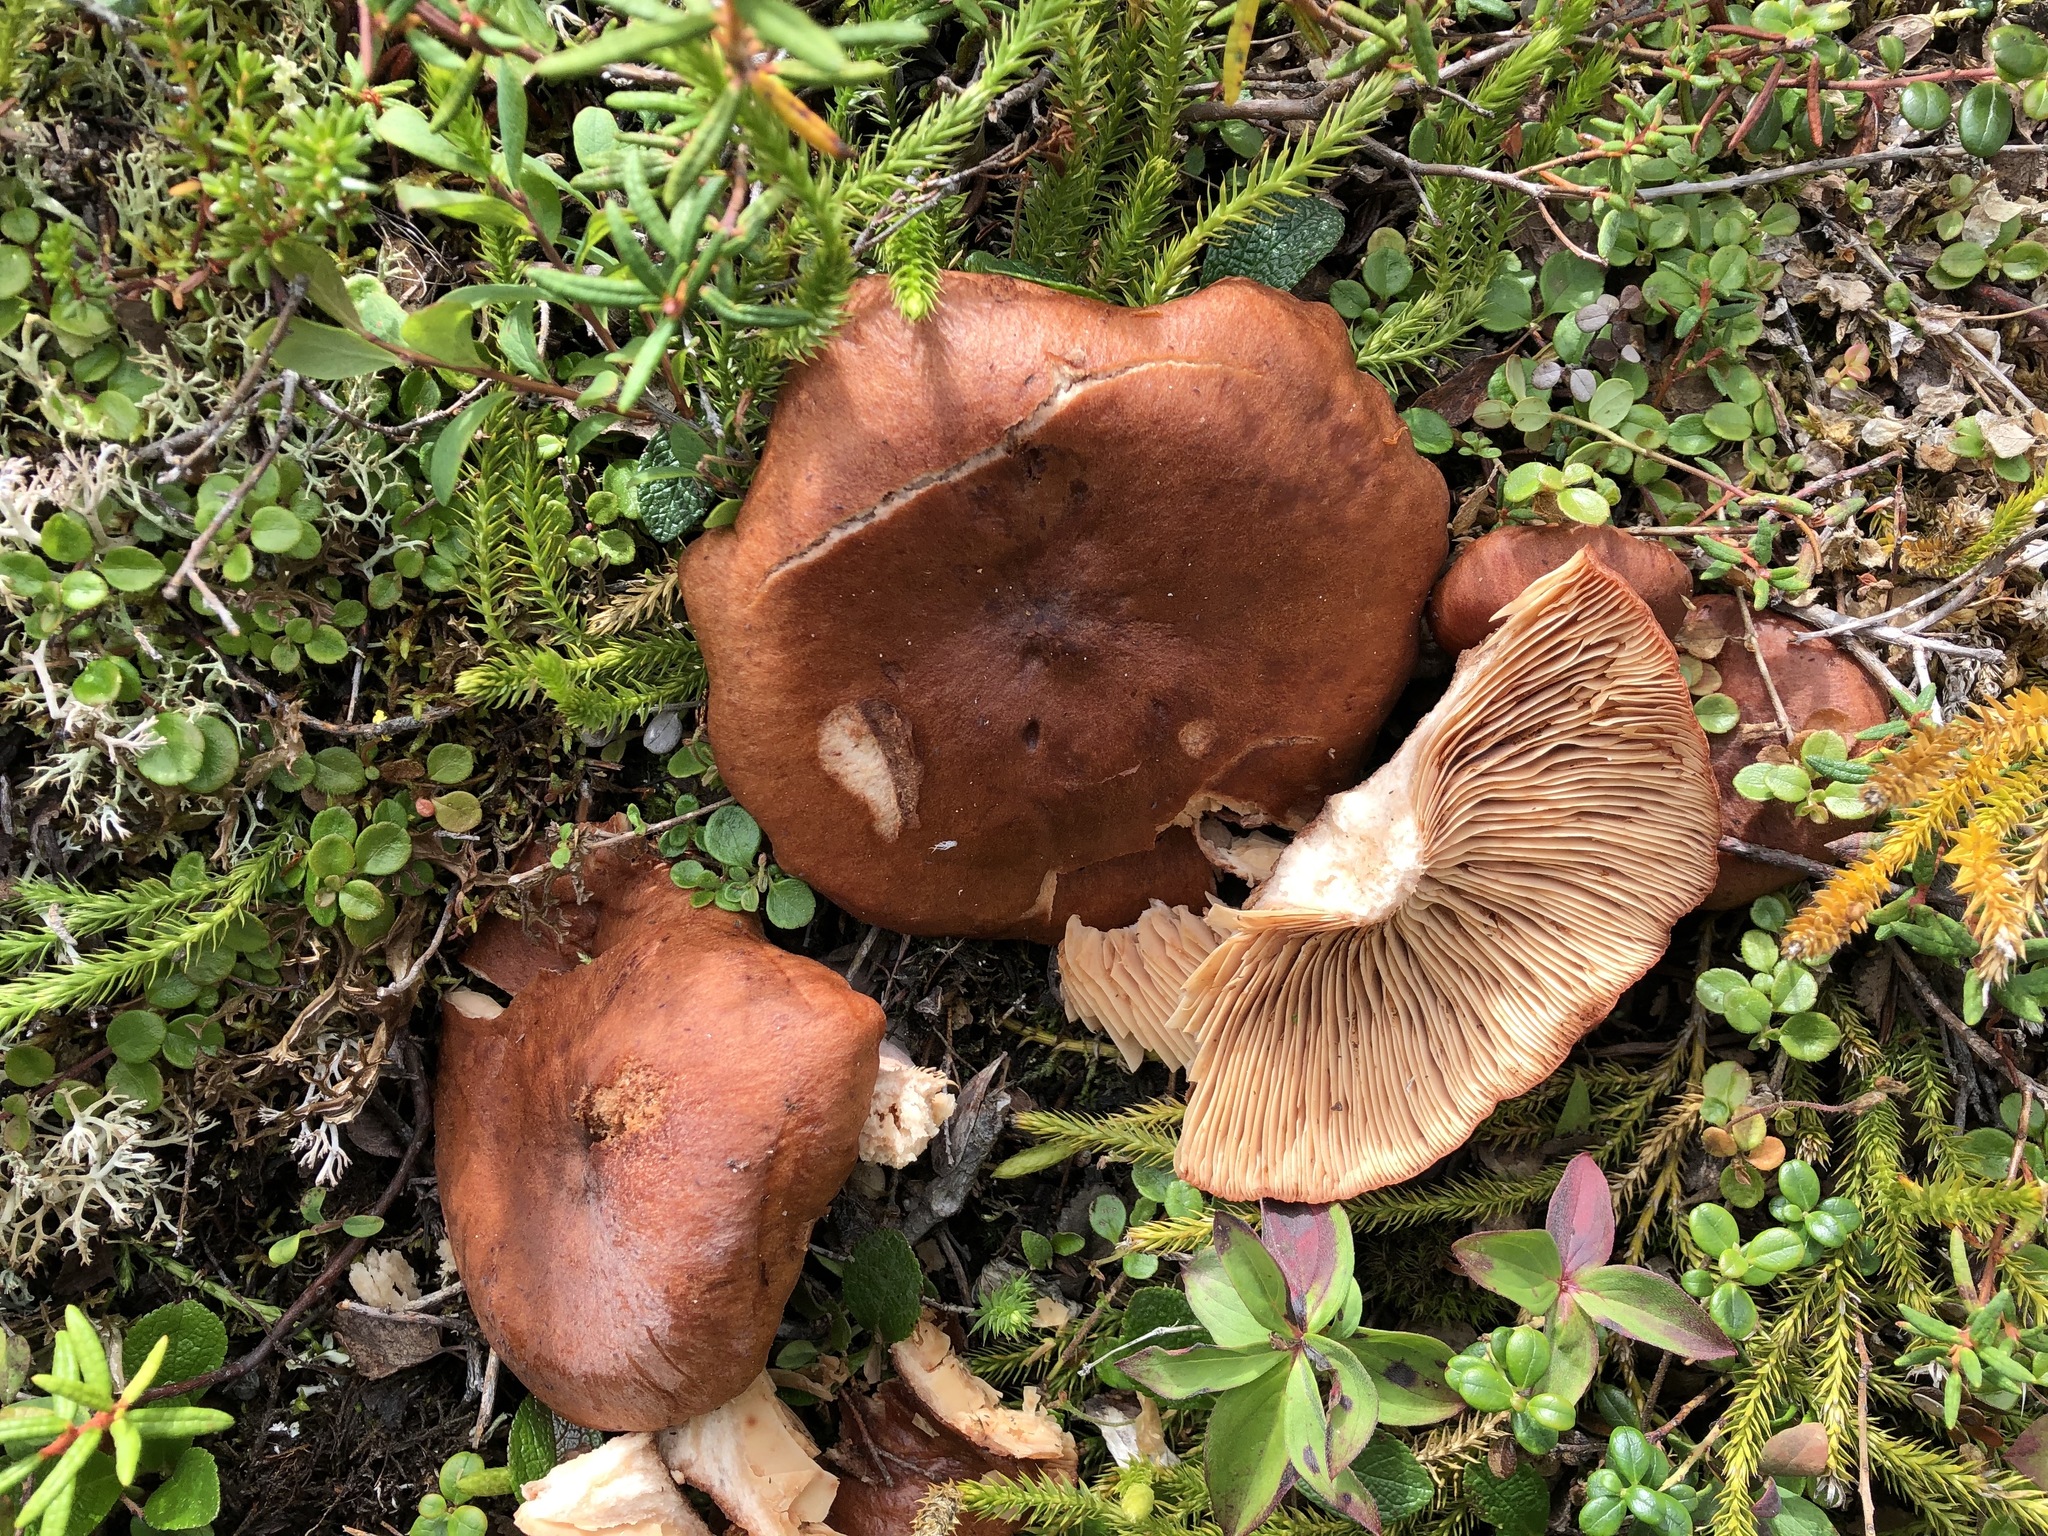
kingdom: Fungi
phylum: Basidiomycota
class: Agaricomycetes
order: Russulales
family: Russulaceae
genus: Lactarius
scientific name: Lactarius rufus
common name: Rufous milk-cap
